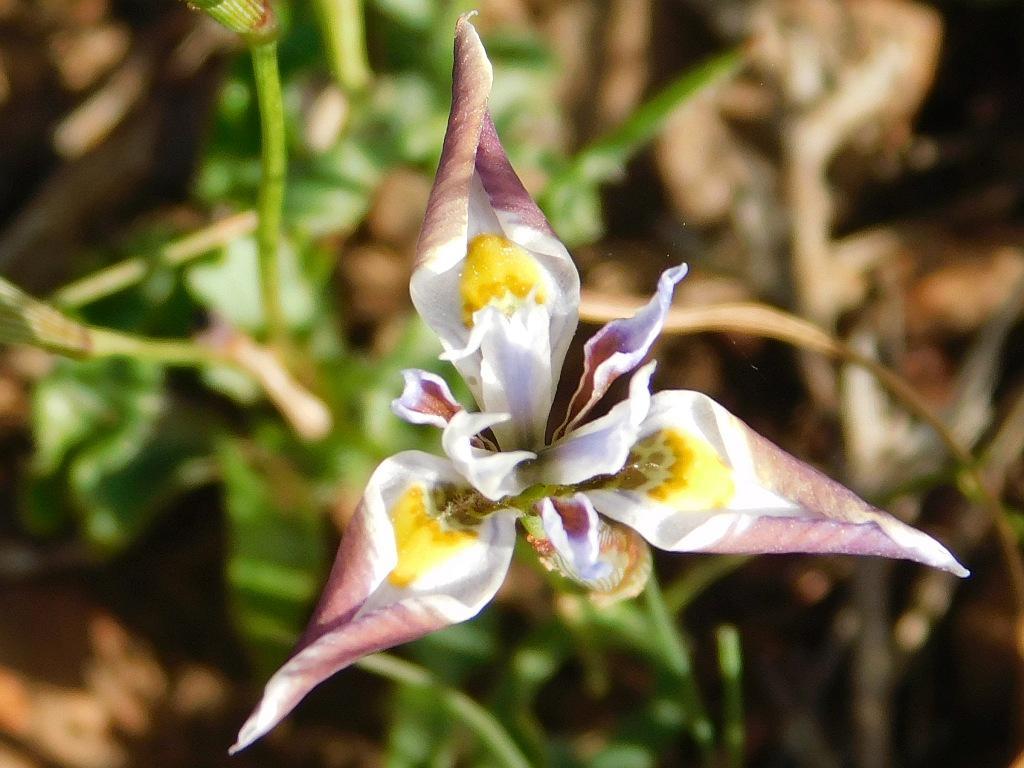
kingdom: Plantae
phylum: Tracheophyta
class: Liliopsida
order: Asparagales
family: Iridaceae
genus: Moraea
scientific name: Moraea fergusoniae
